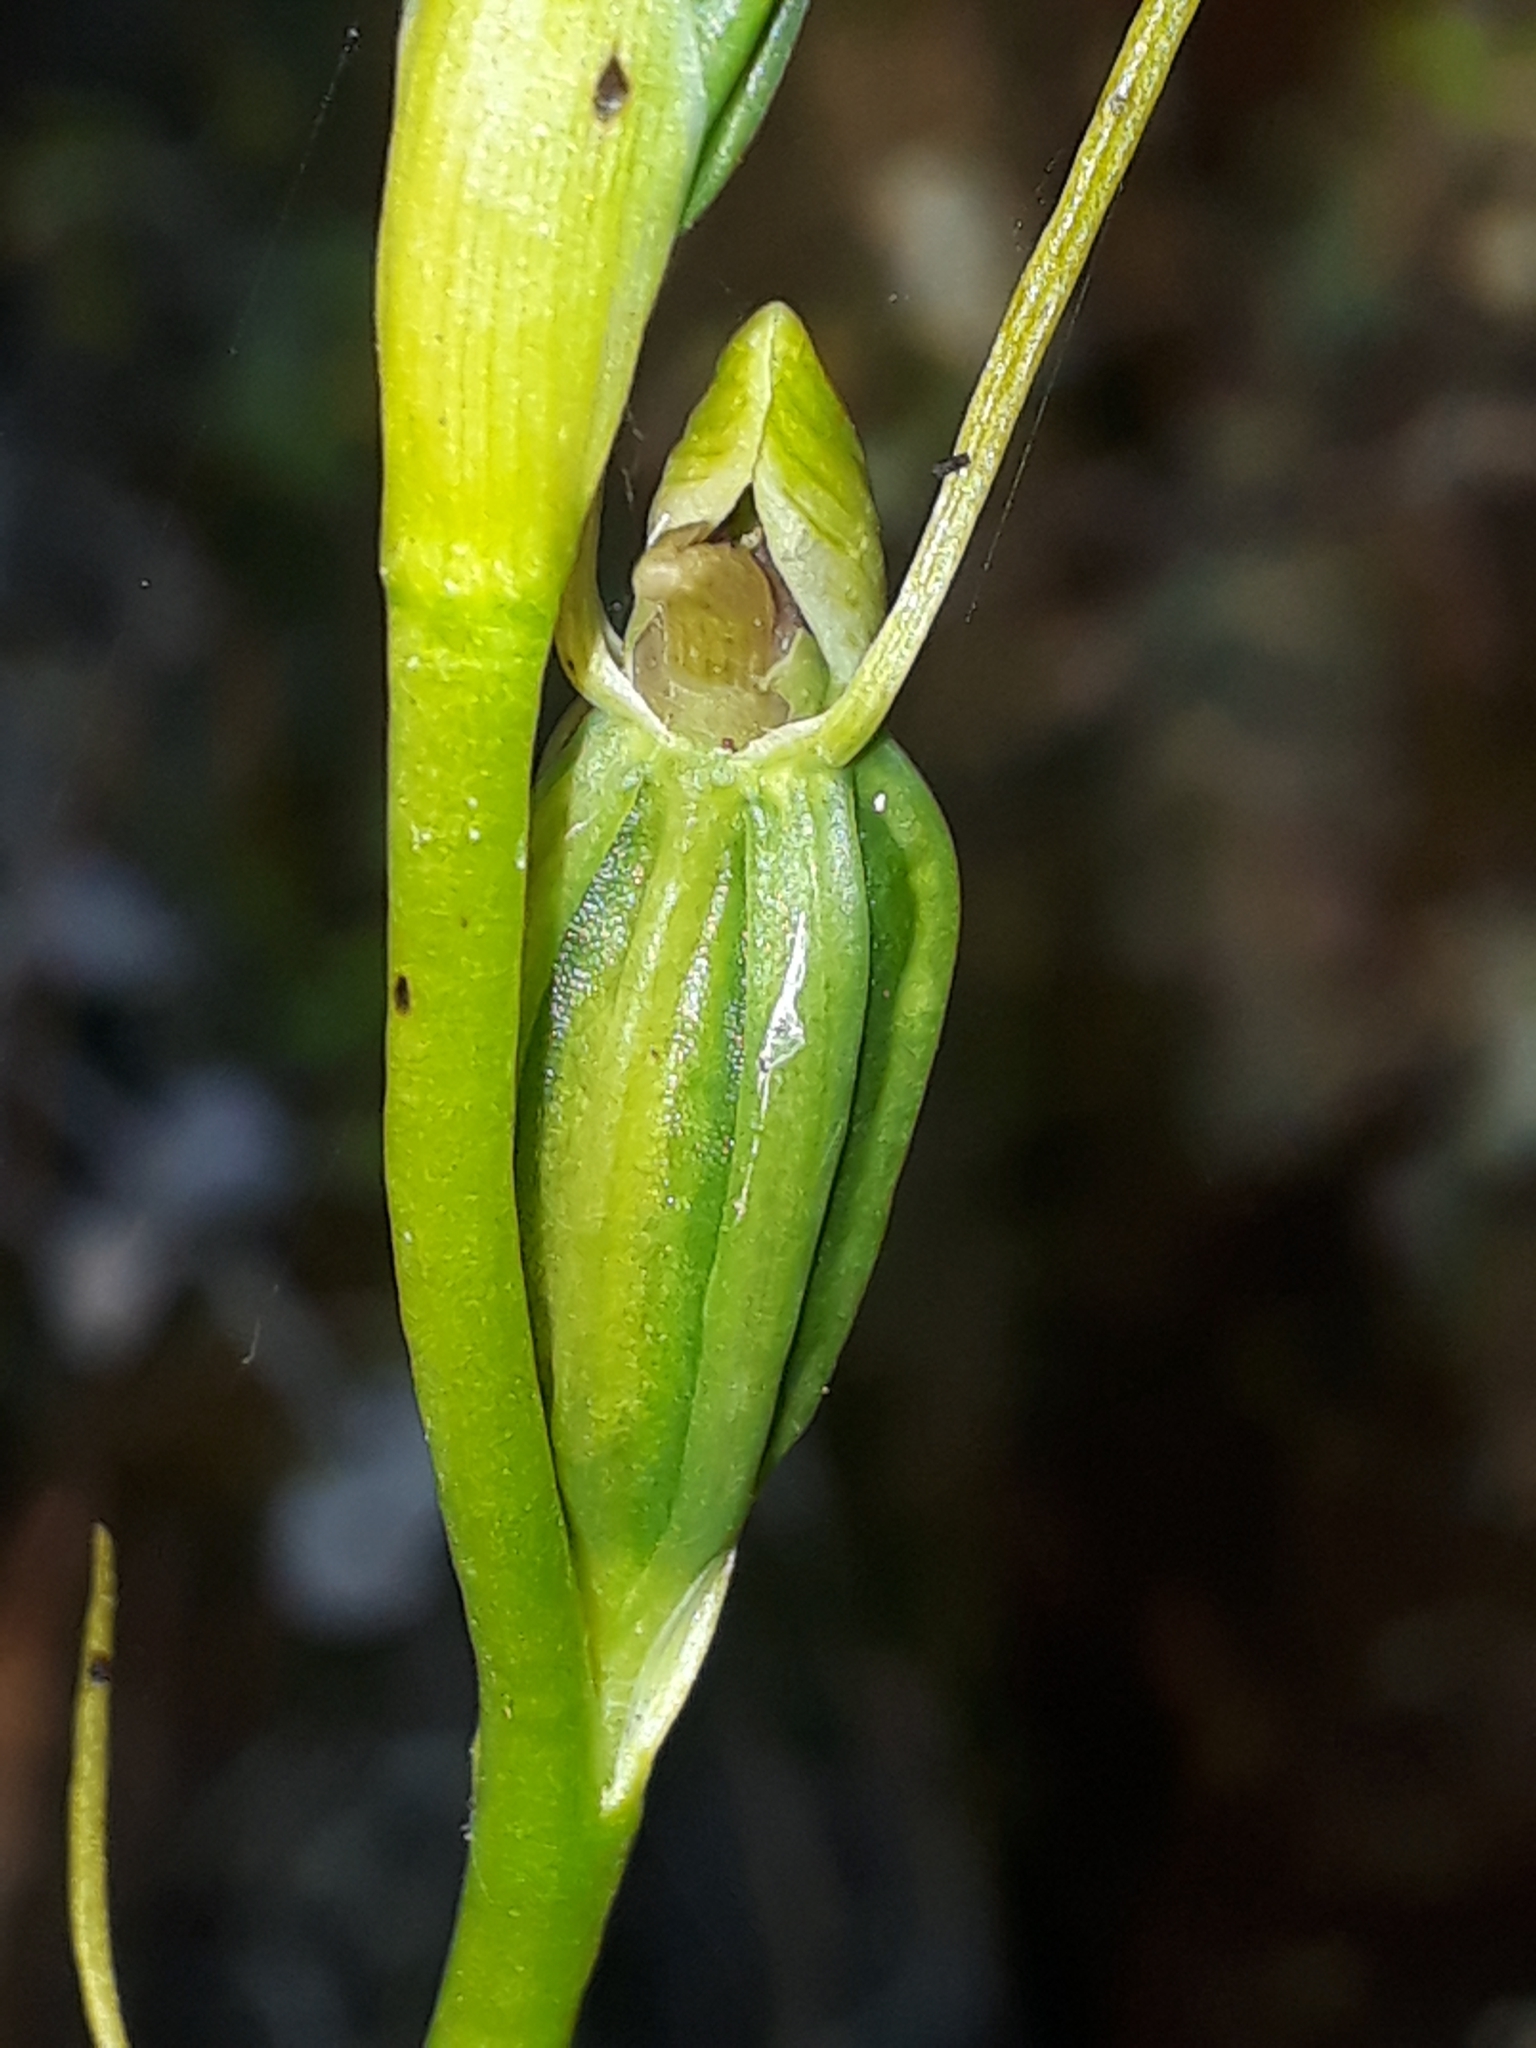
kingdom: Plantae
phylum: Tracheophyta
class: Liliopsida
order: Asparagales
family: Orchidaceae
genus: Orthoceras
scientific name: Orthoceras novae-zeelandiae
